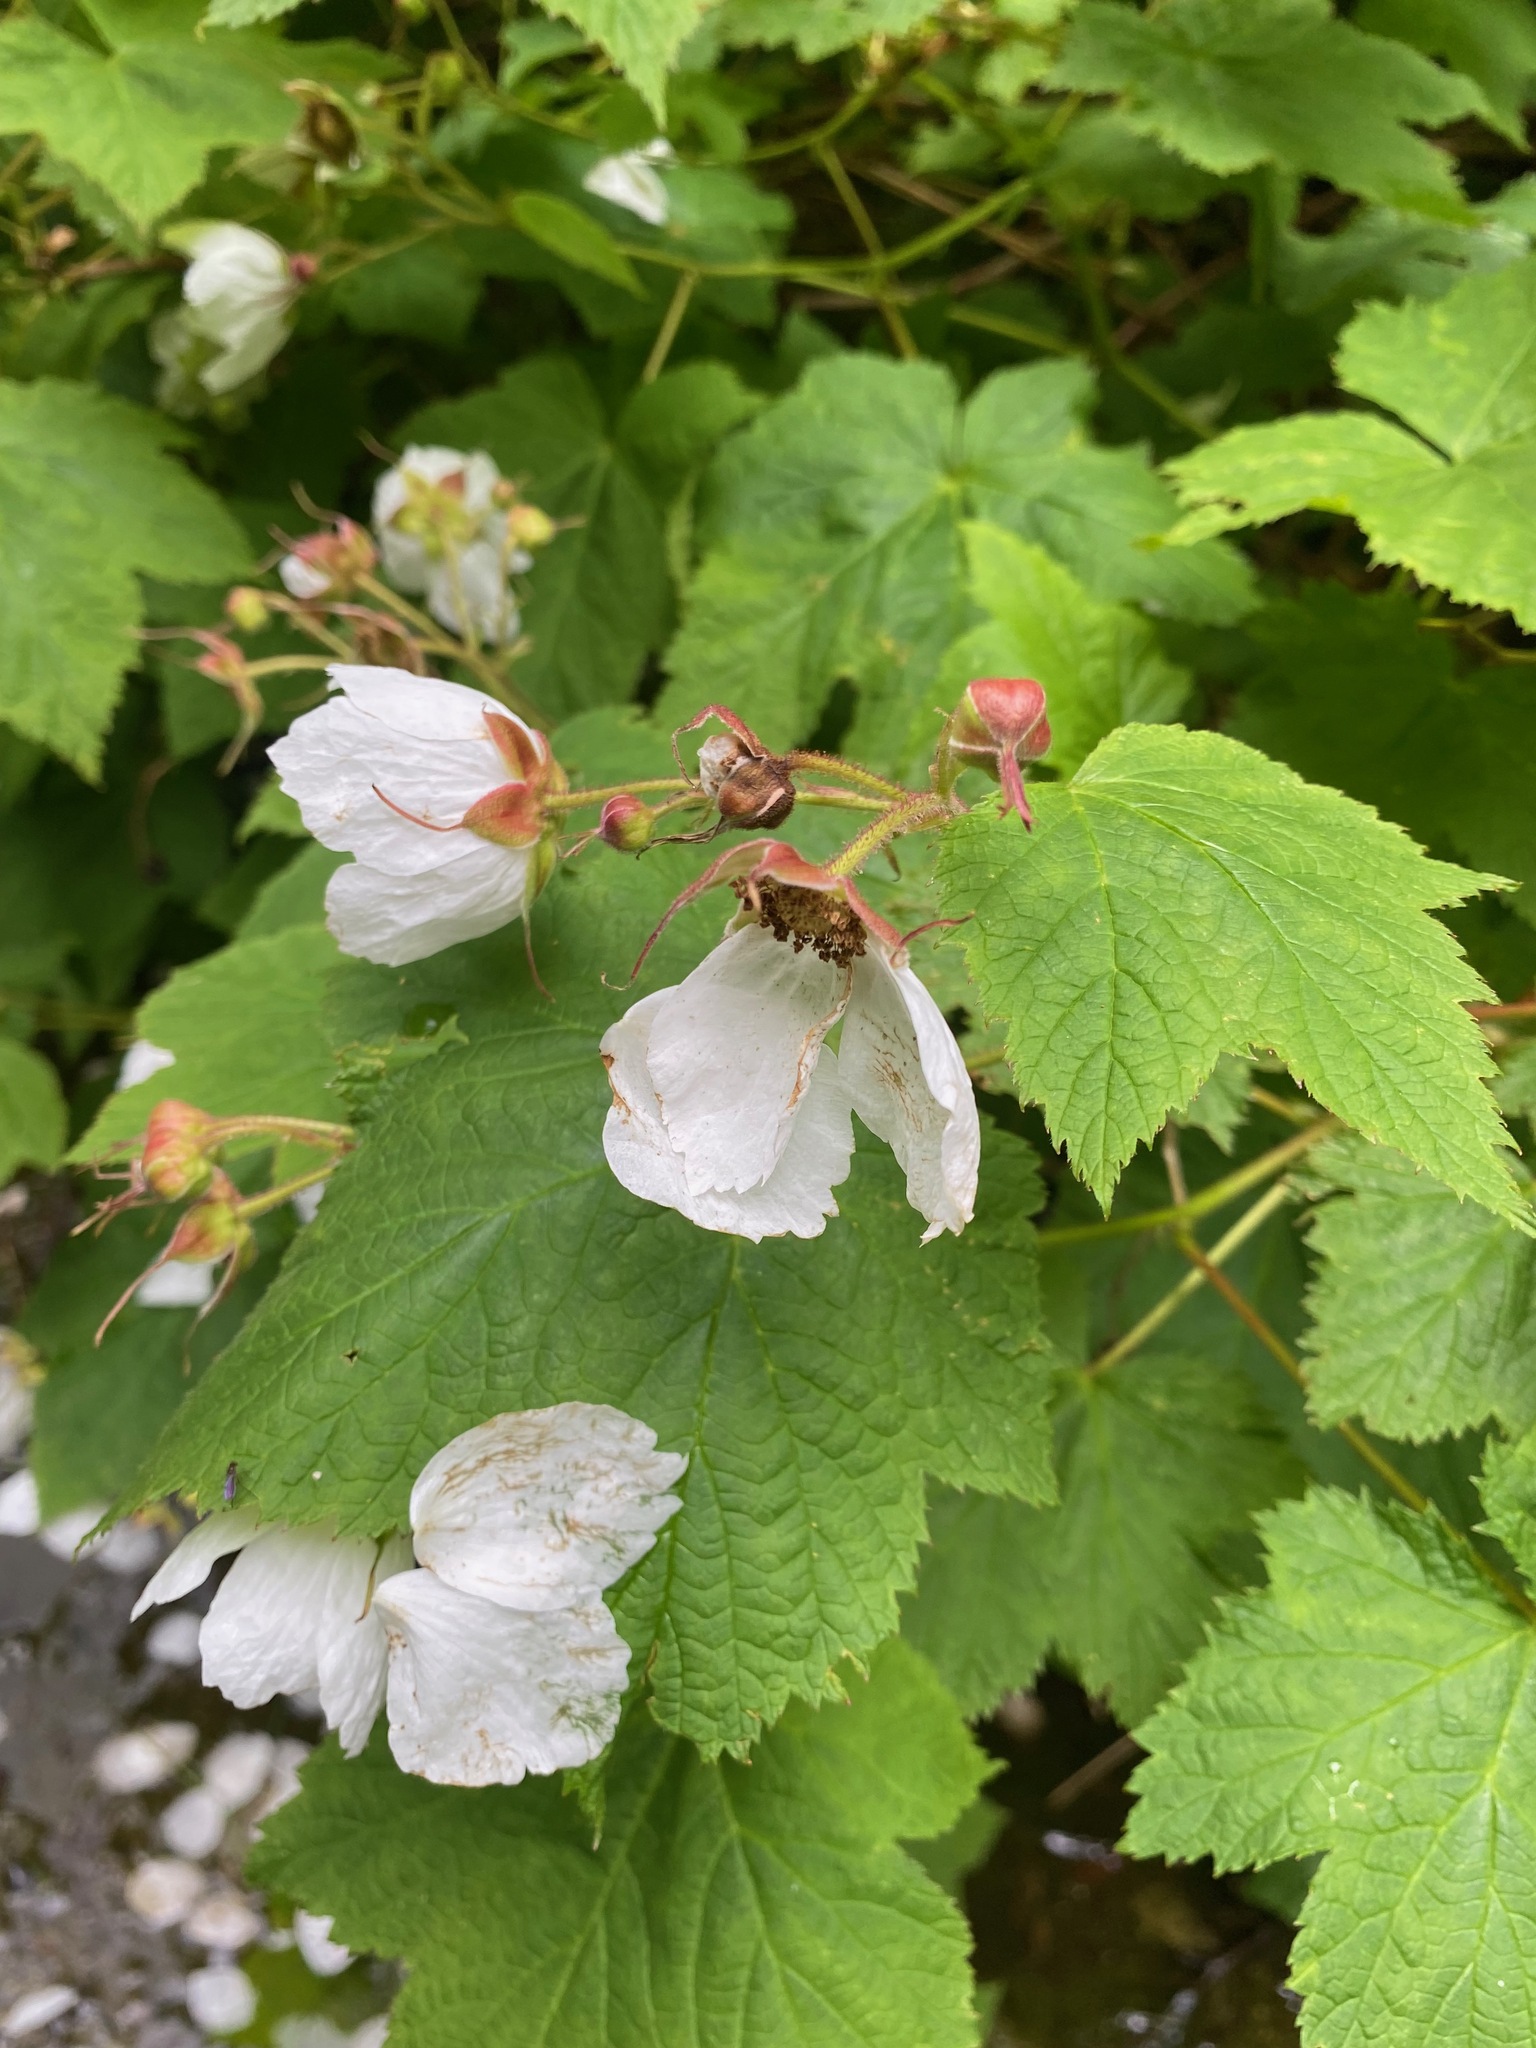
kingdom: Plantae
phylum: Tracheophyta
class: Magnoliopsida
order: Rosales
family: Rosaceae
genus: Rubus
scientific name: Rubus parviflorus
